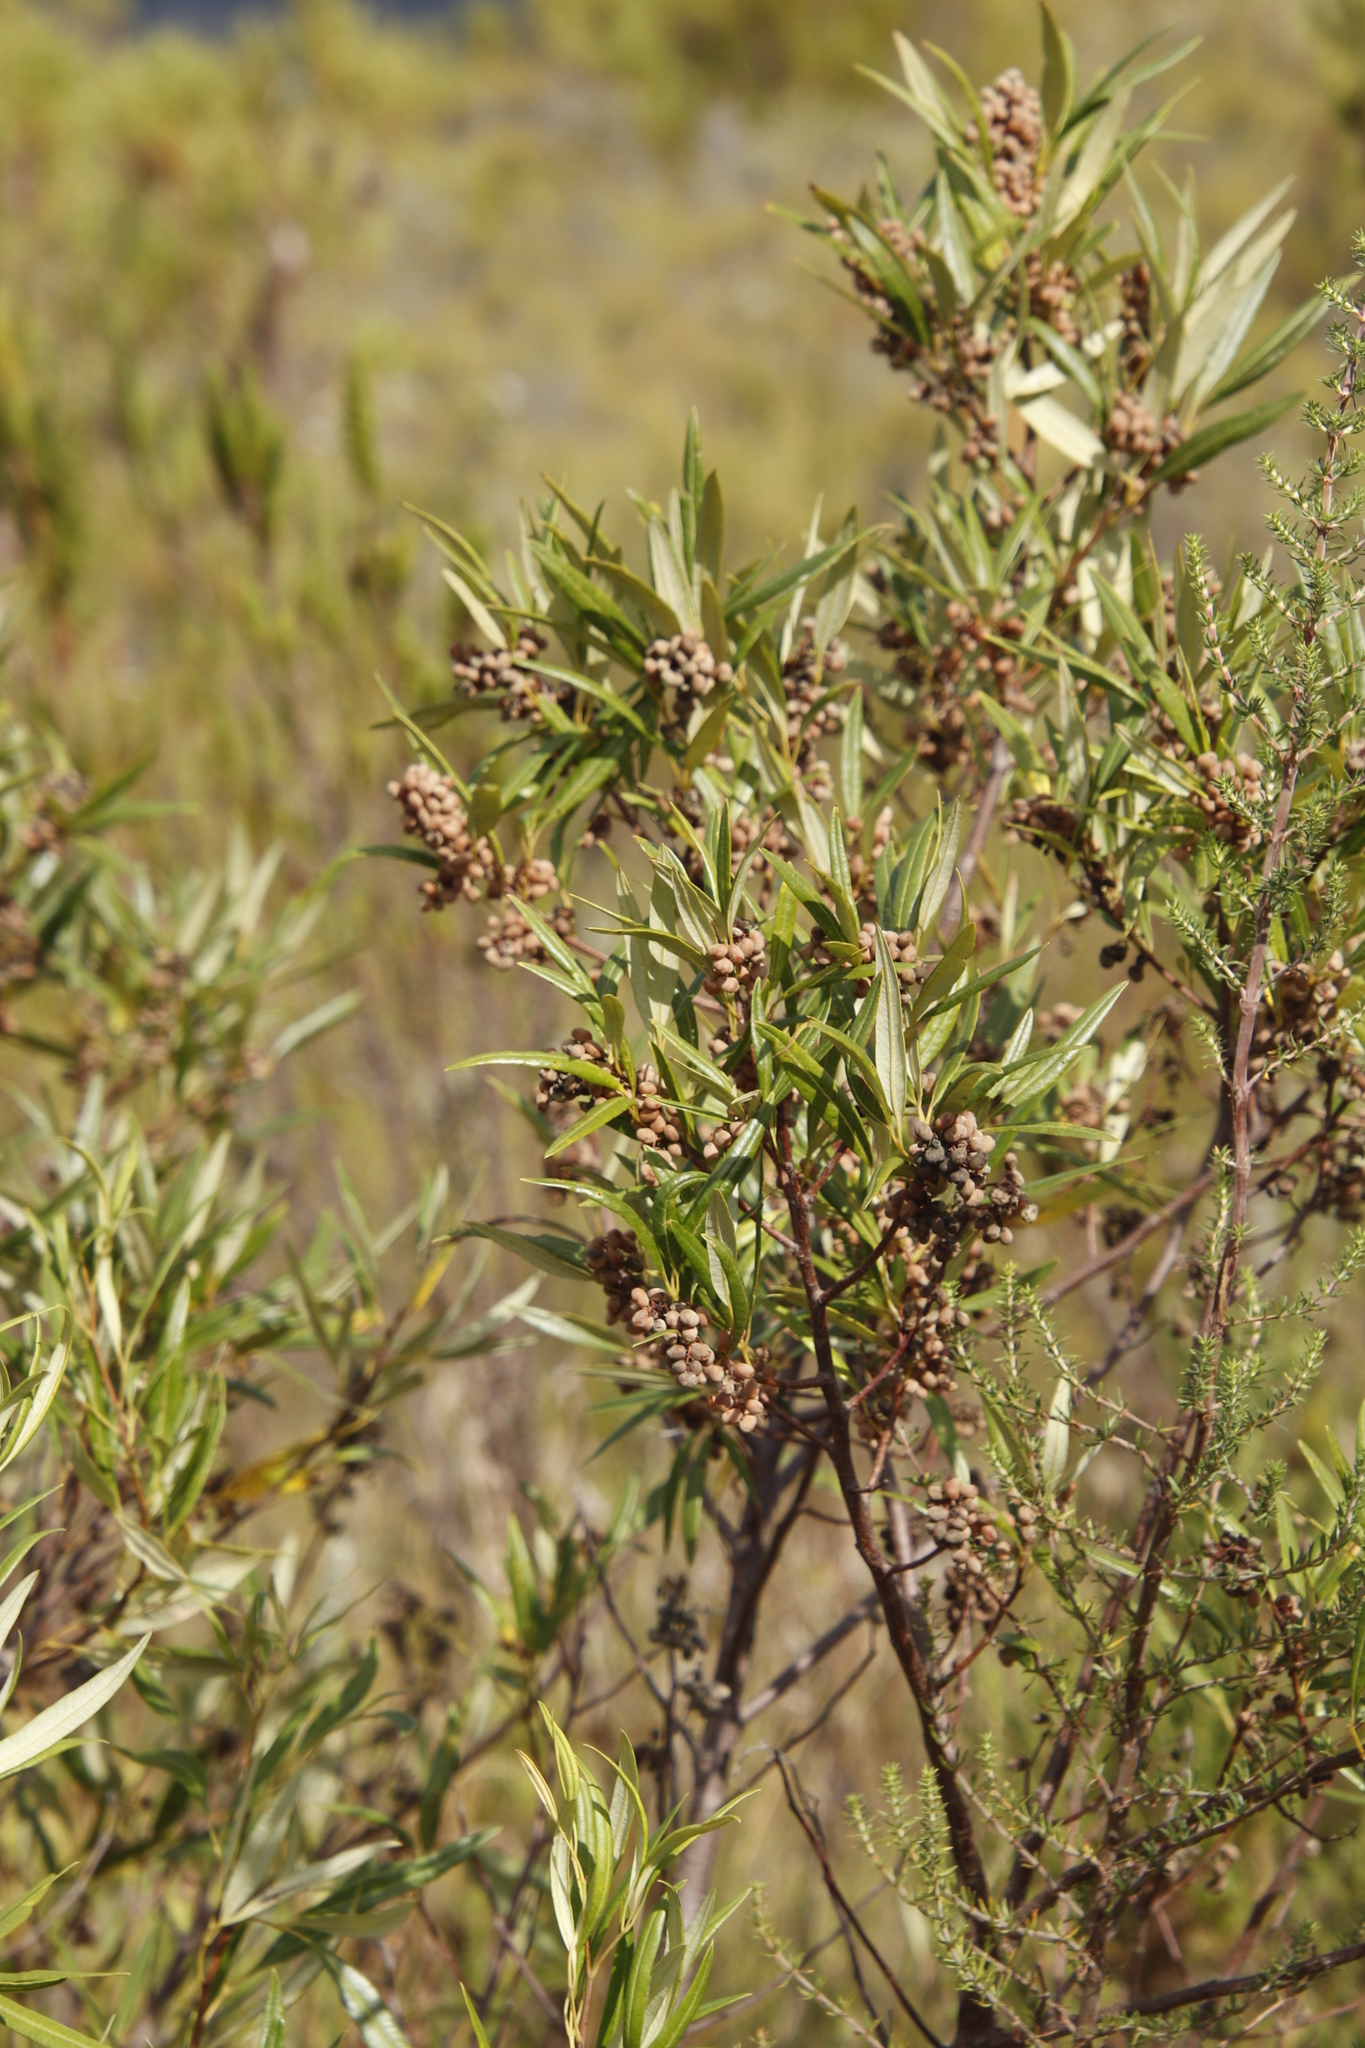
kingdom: Plantae
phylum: Tracheophyta
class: Magnoliopsida
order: Sapindales
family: Anacardiaceae
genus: Searsia
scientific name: Searsia angustifolia
